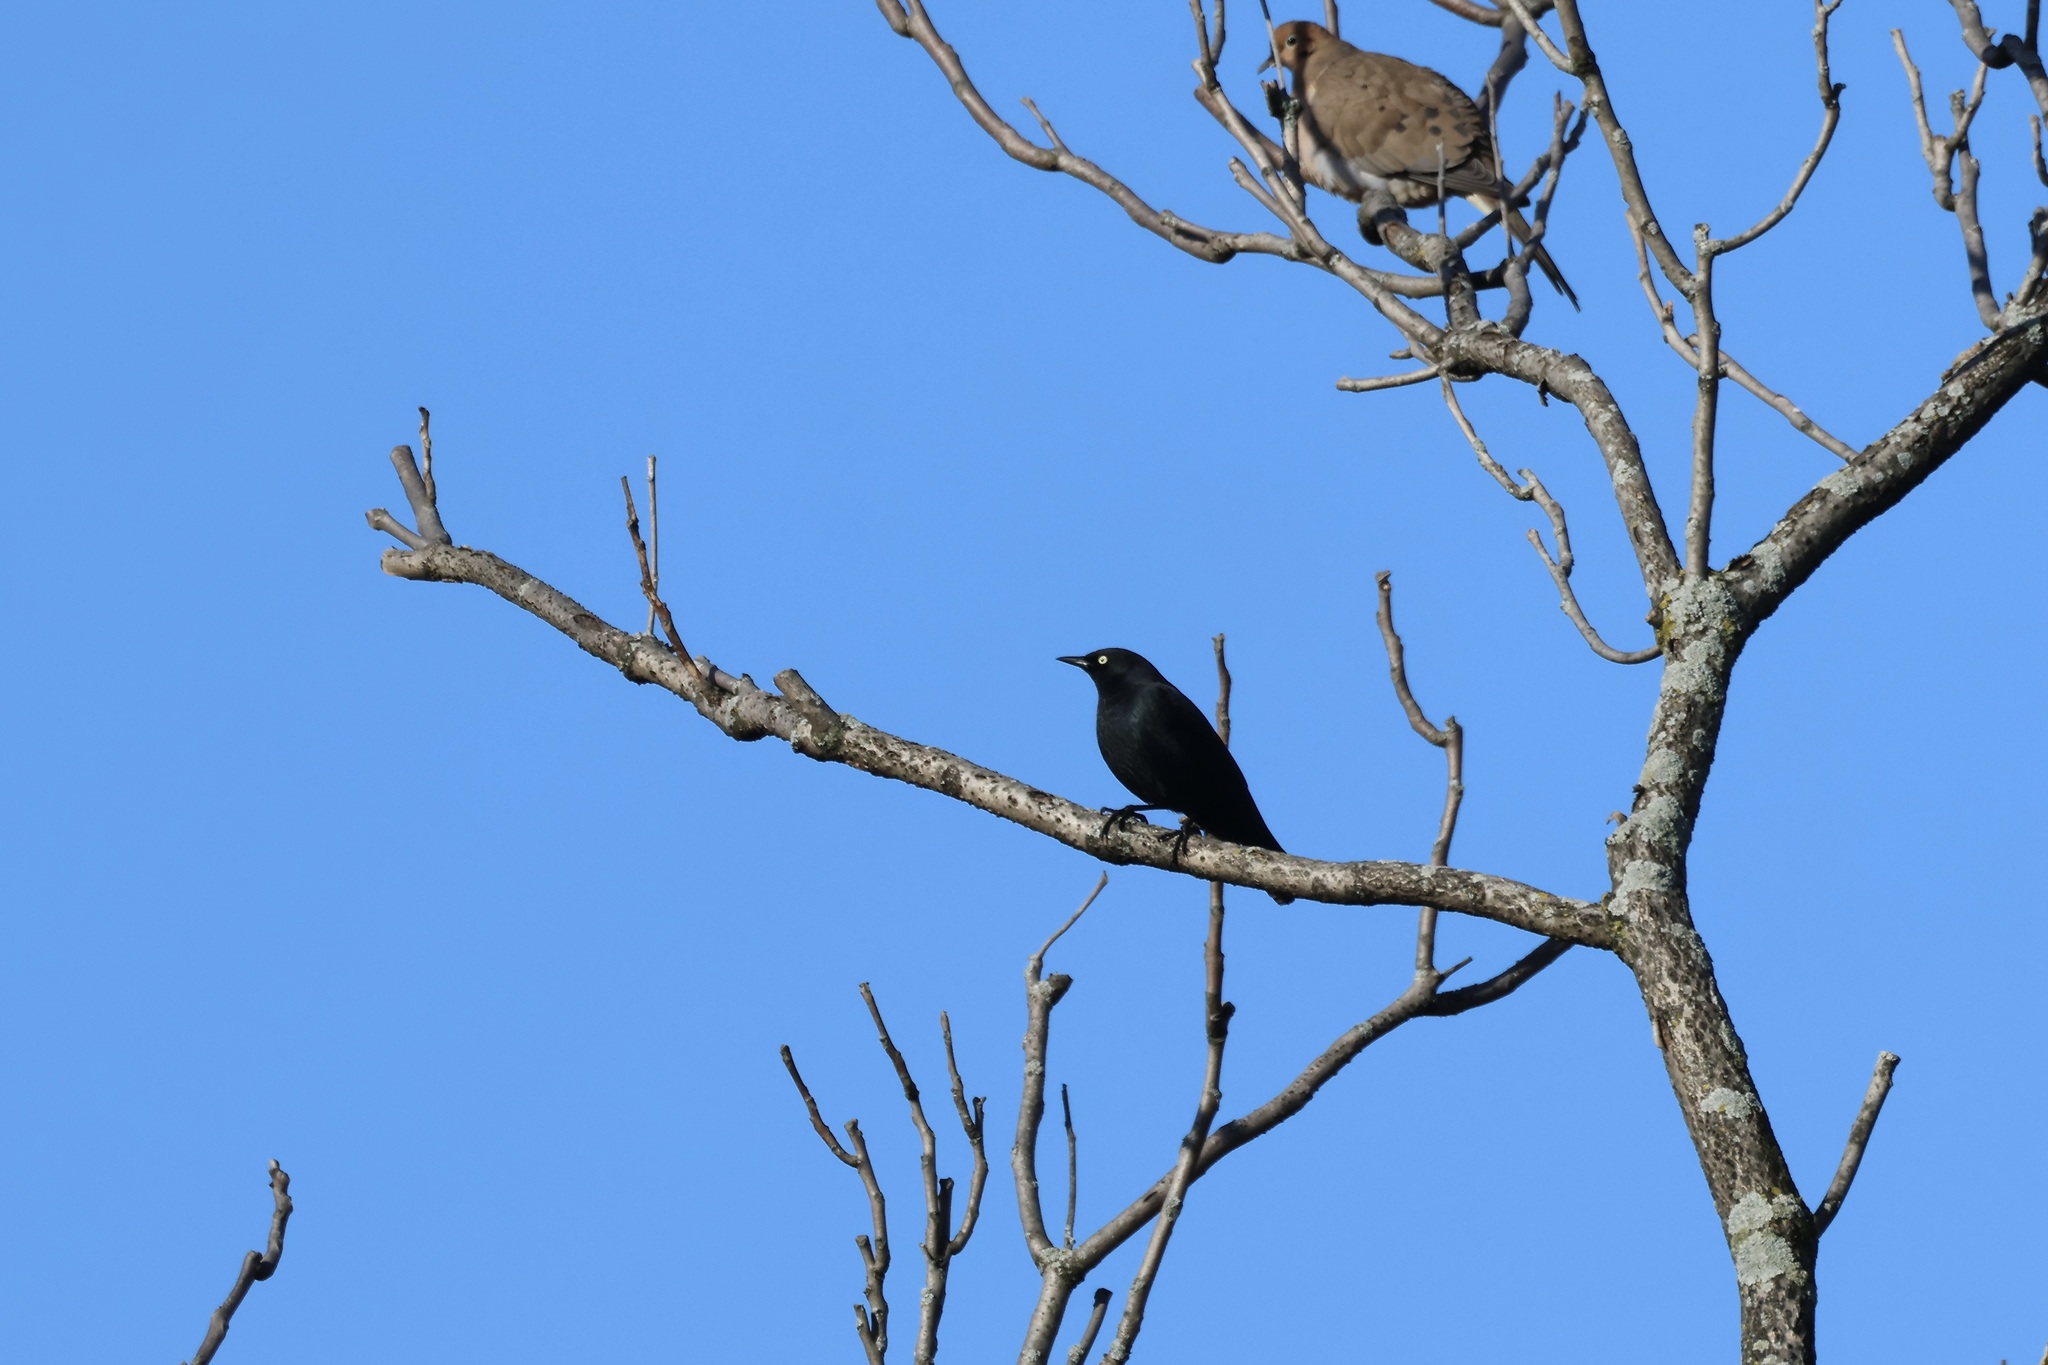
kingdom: Animalia
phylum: Chordata
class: Aves
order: Passeriformes
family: Icteridae
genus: Euphagus
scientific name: Euphagus carolinus
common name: Rusty blackbird
